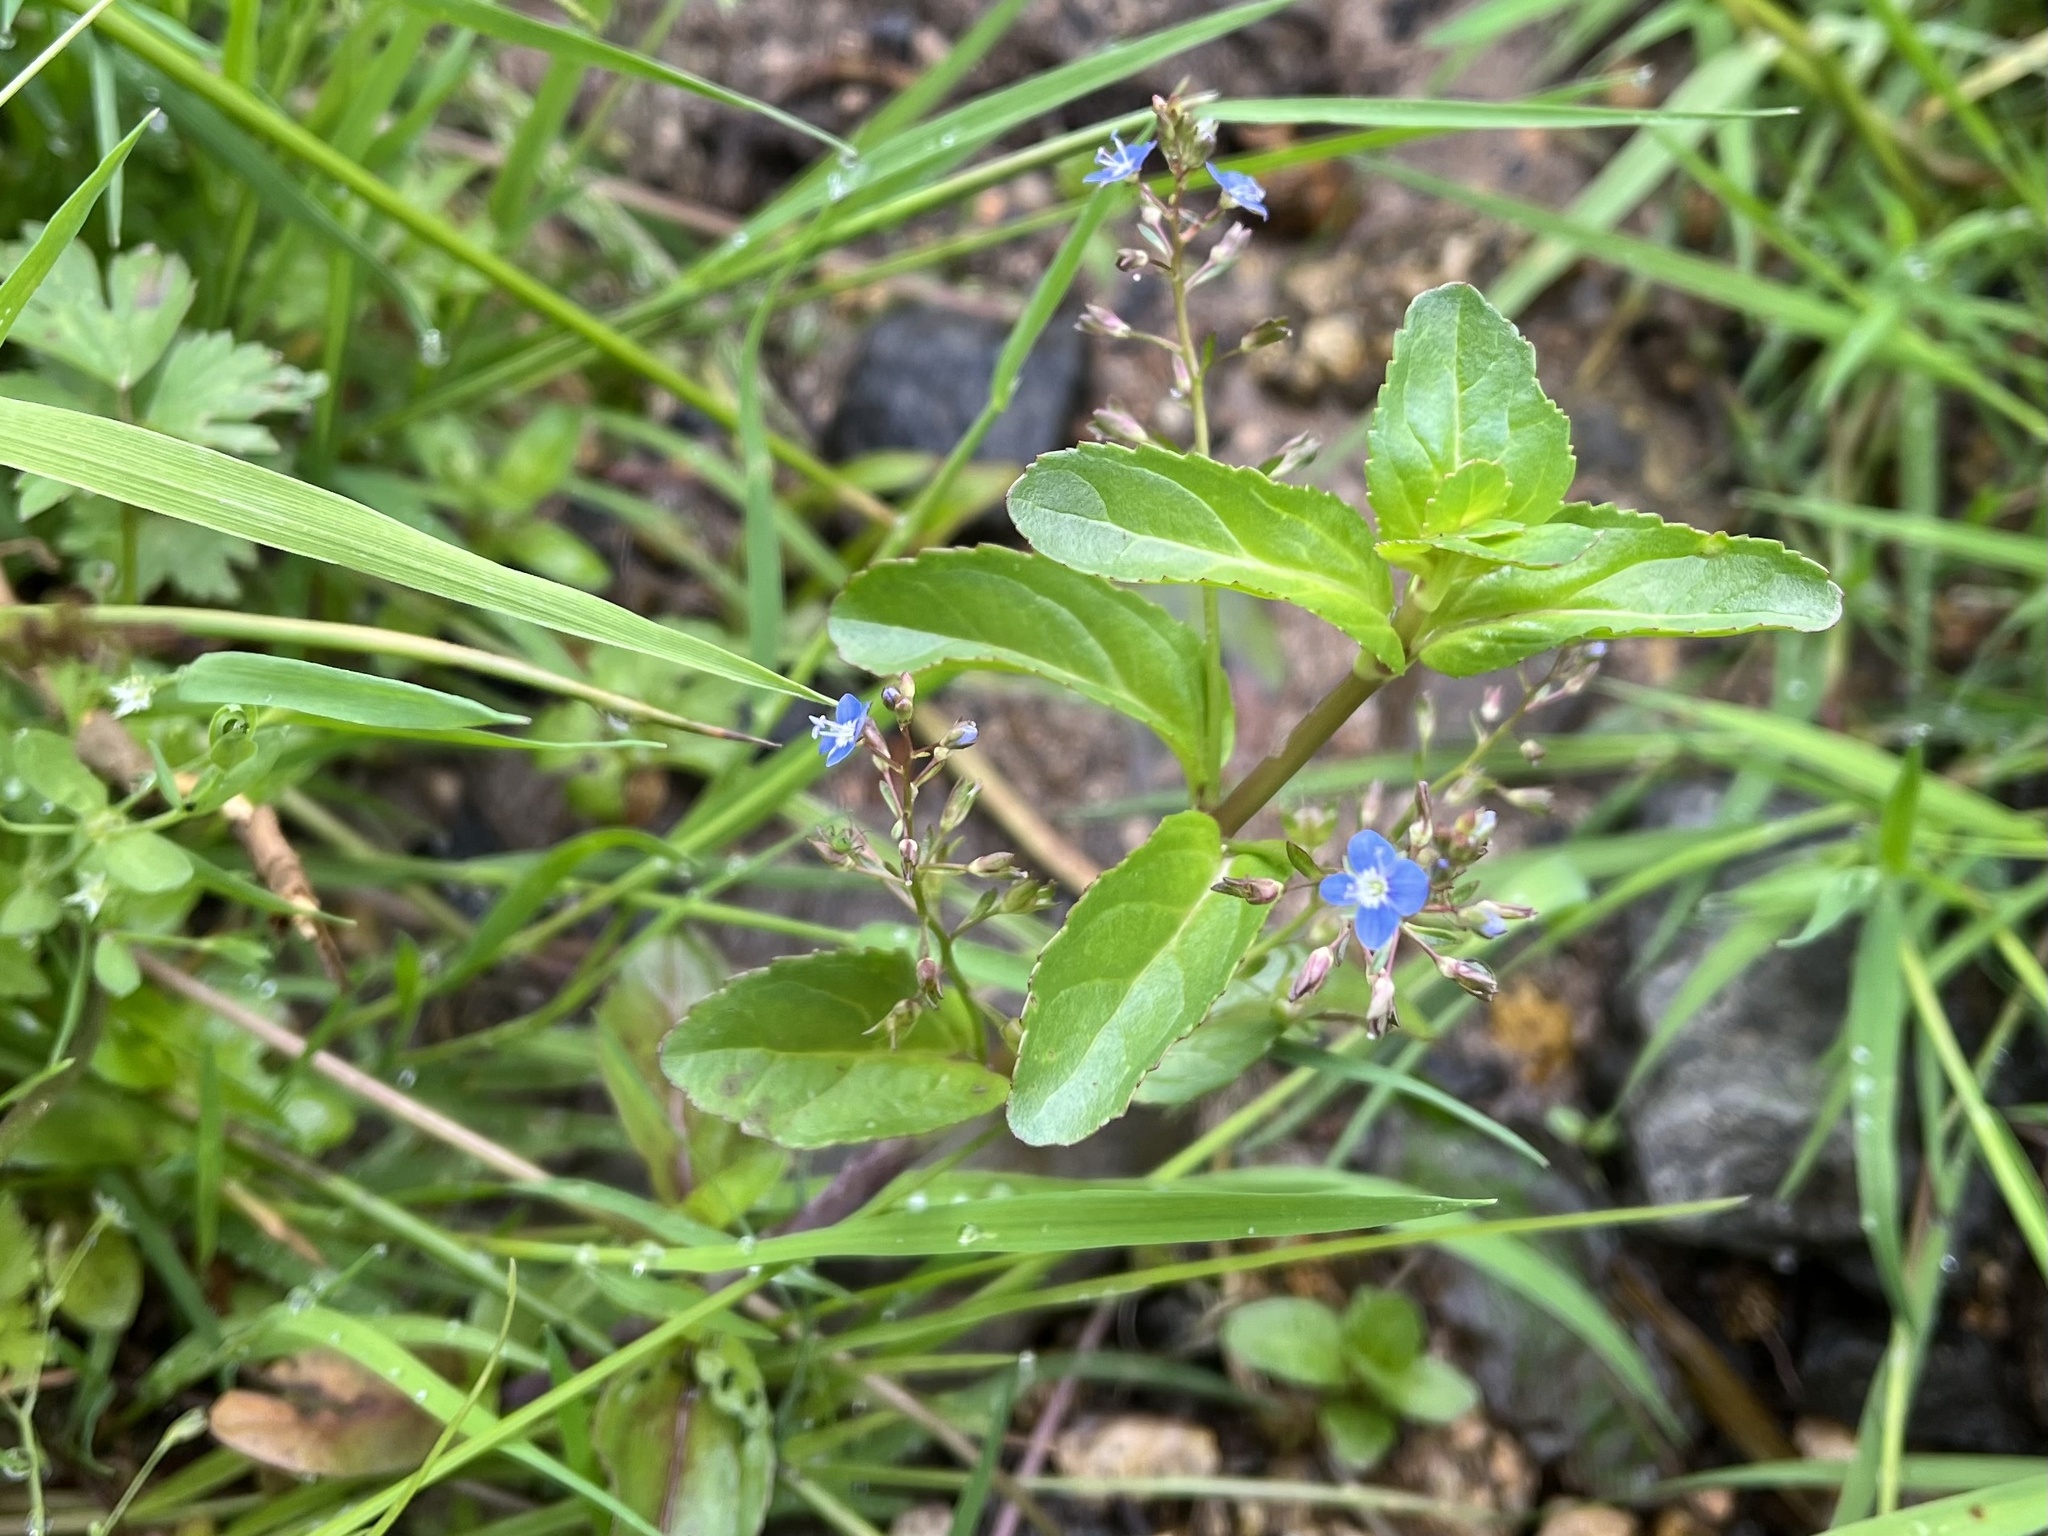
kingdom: Plantae
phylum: Tracheophyta
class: Magnoliopsida
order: Lamiales
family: Plantaginaceae
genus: Veronica
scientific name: Veronica beccabunga
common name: Brooklime
